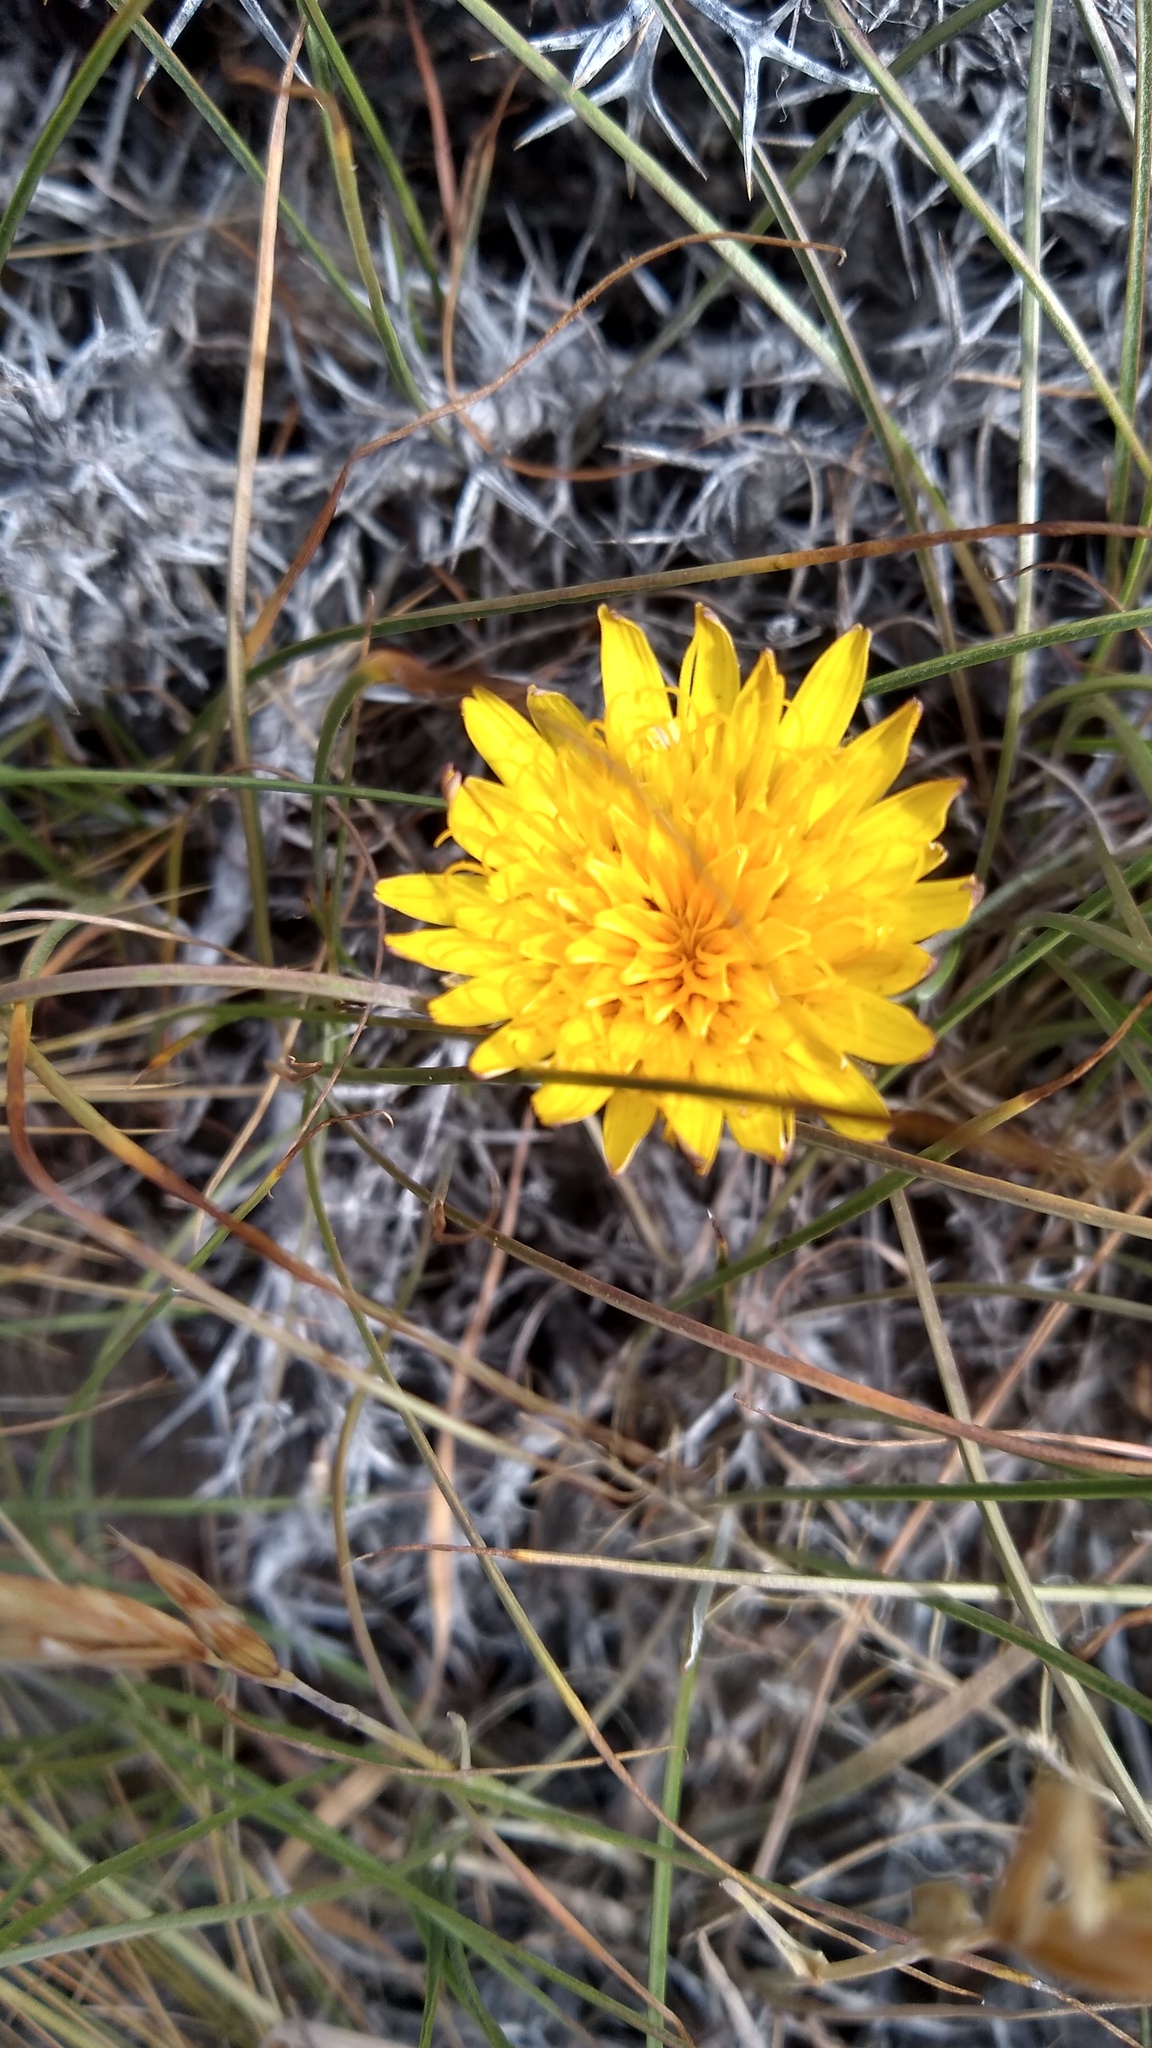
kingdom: Plantae
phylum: Tracheophyta
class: Magnoliopsida
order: Asterales
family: Asteraceae
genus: Hypochaeris
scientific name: Hypochaeris hookeri
